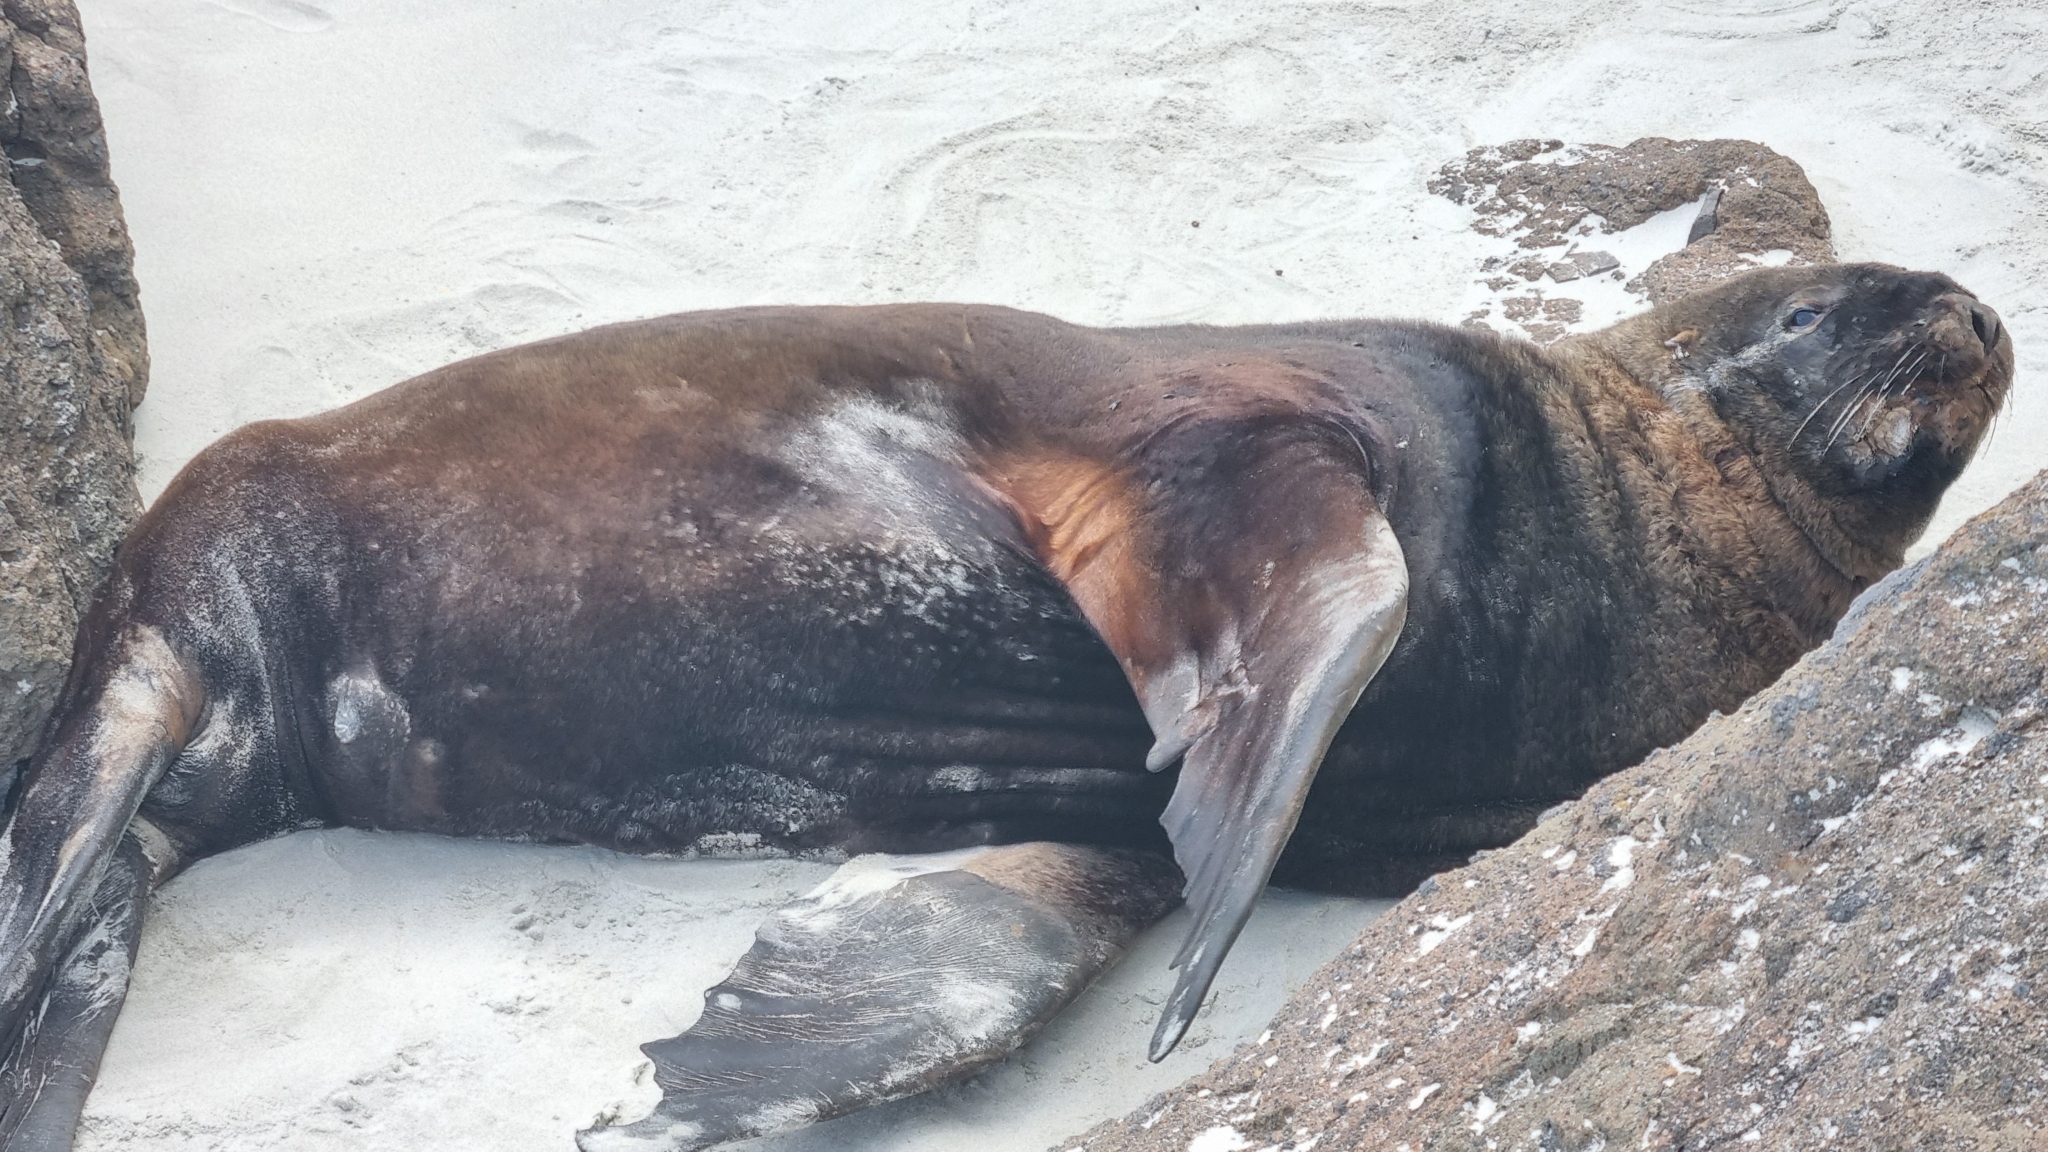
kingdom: Animalia
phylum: Chordata
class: Mammalia
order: Carnivora
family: Otariidae
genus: Phocarctos
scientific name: Phocarctos hookeri
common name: New zealand sea lion
